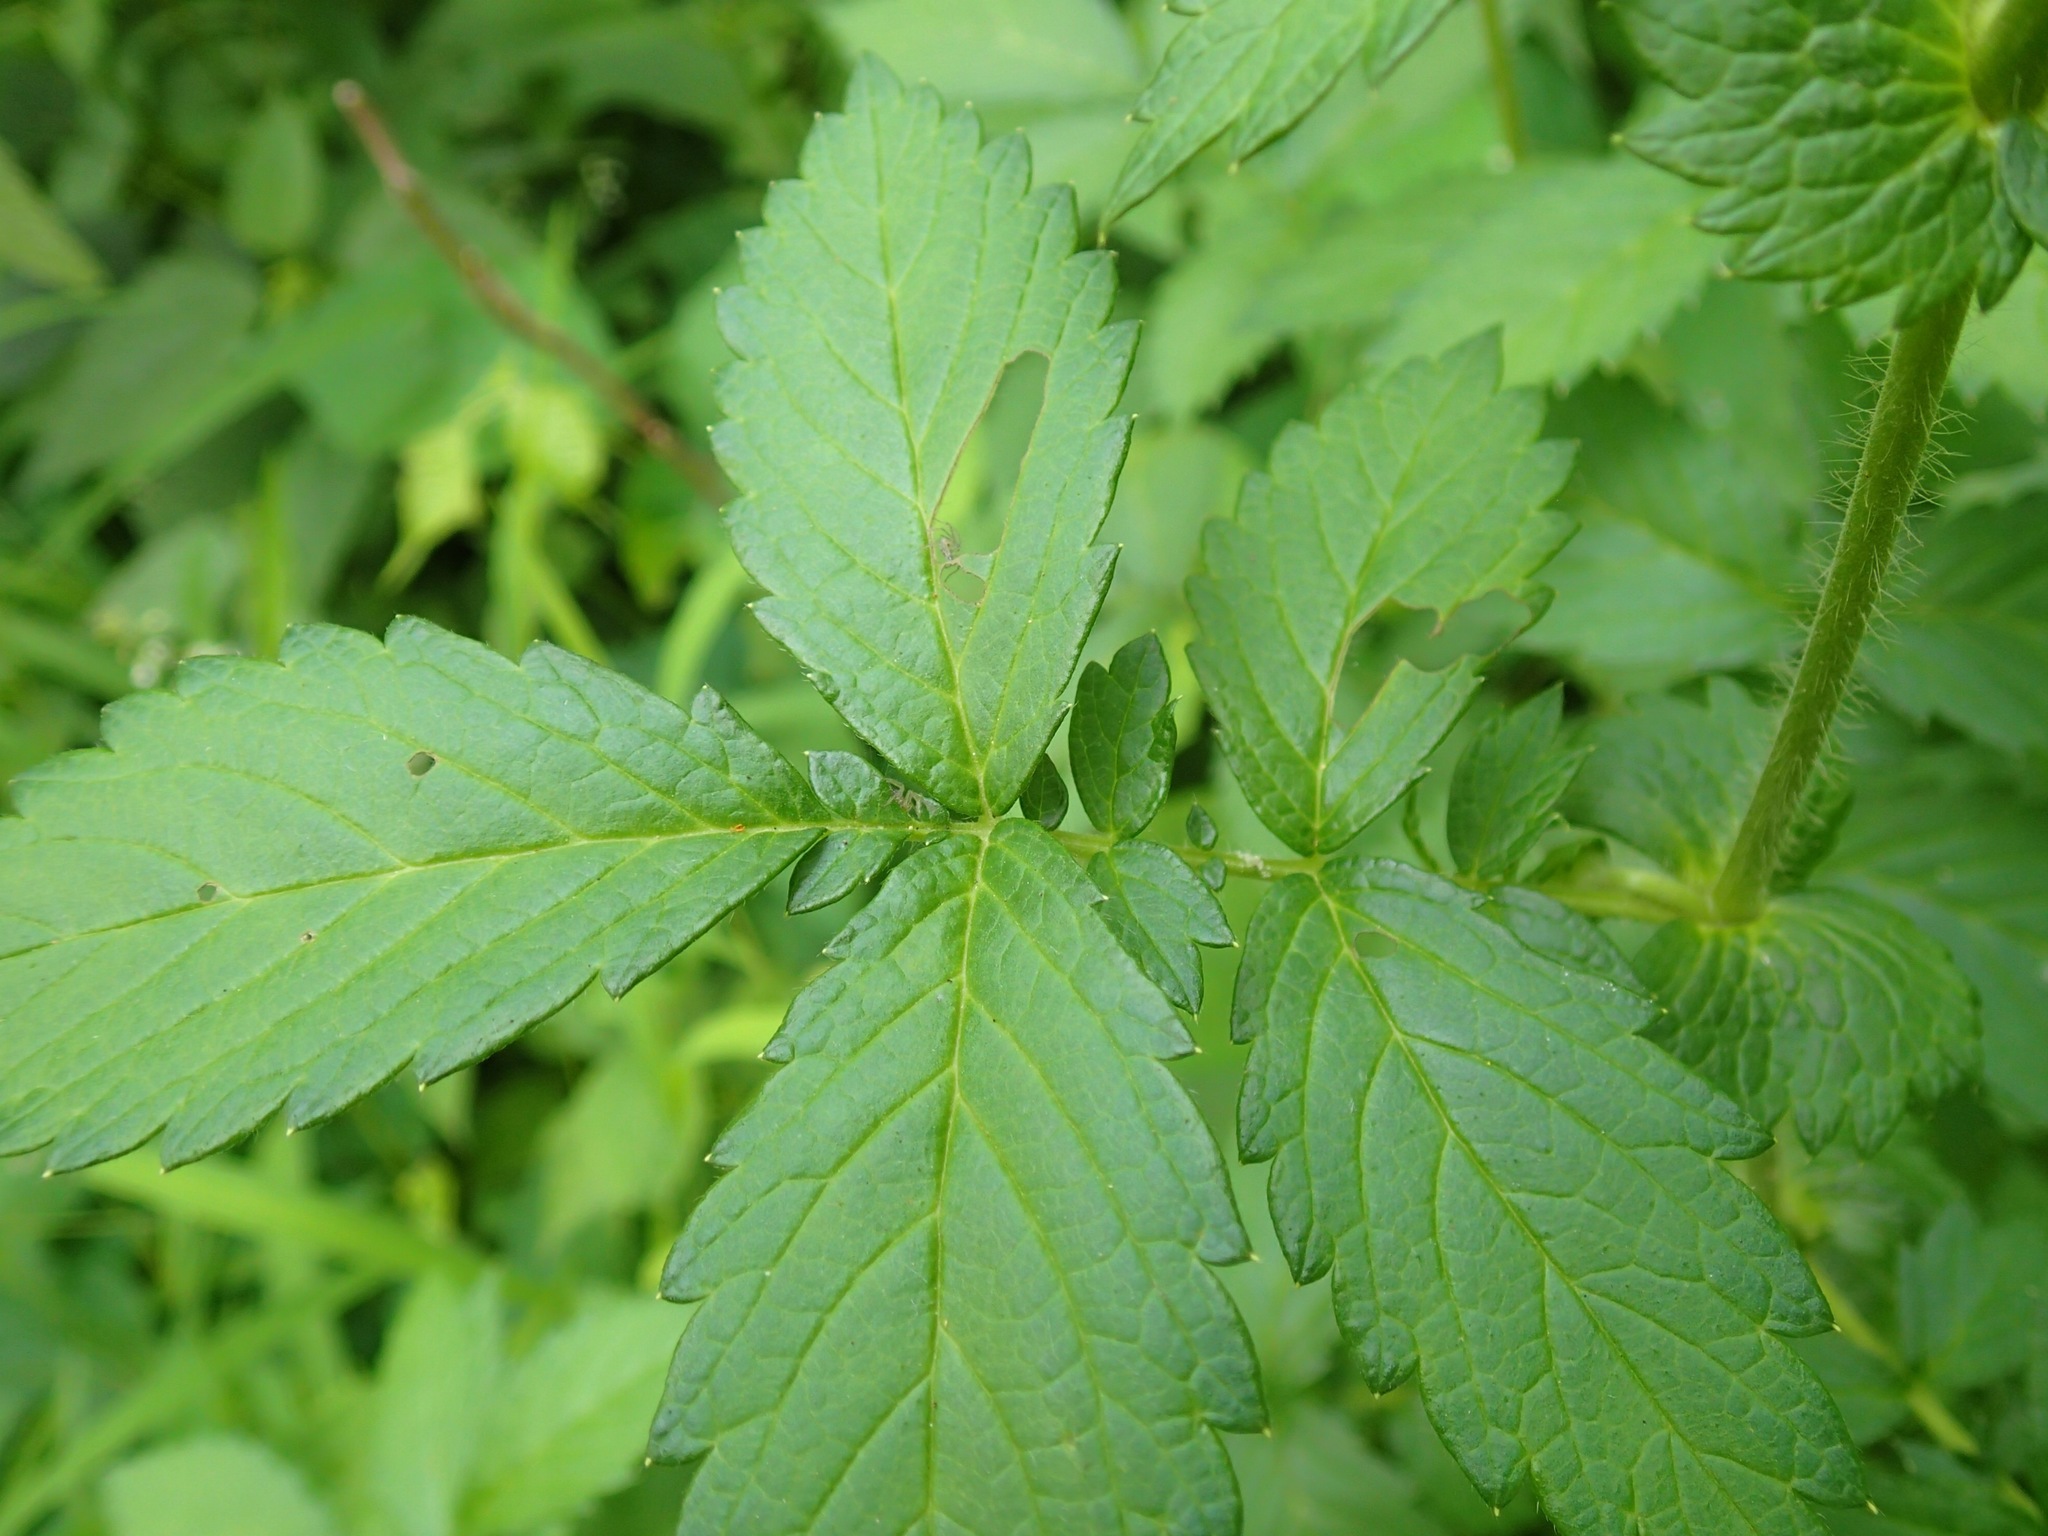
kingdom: Plantae
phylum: Tracheophyta
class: Magnoliopsida
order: Rosales
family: Rosaceae
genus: Agrimonia
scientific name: Agrimonia gryposepala
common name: Common agrimony
